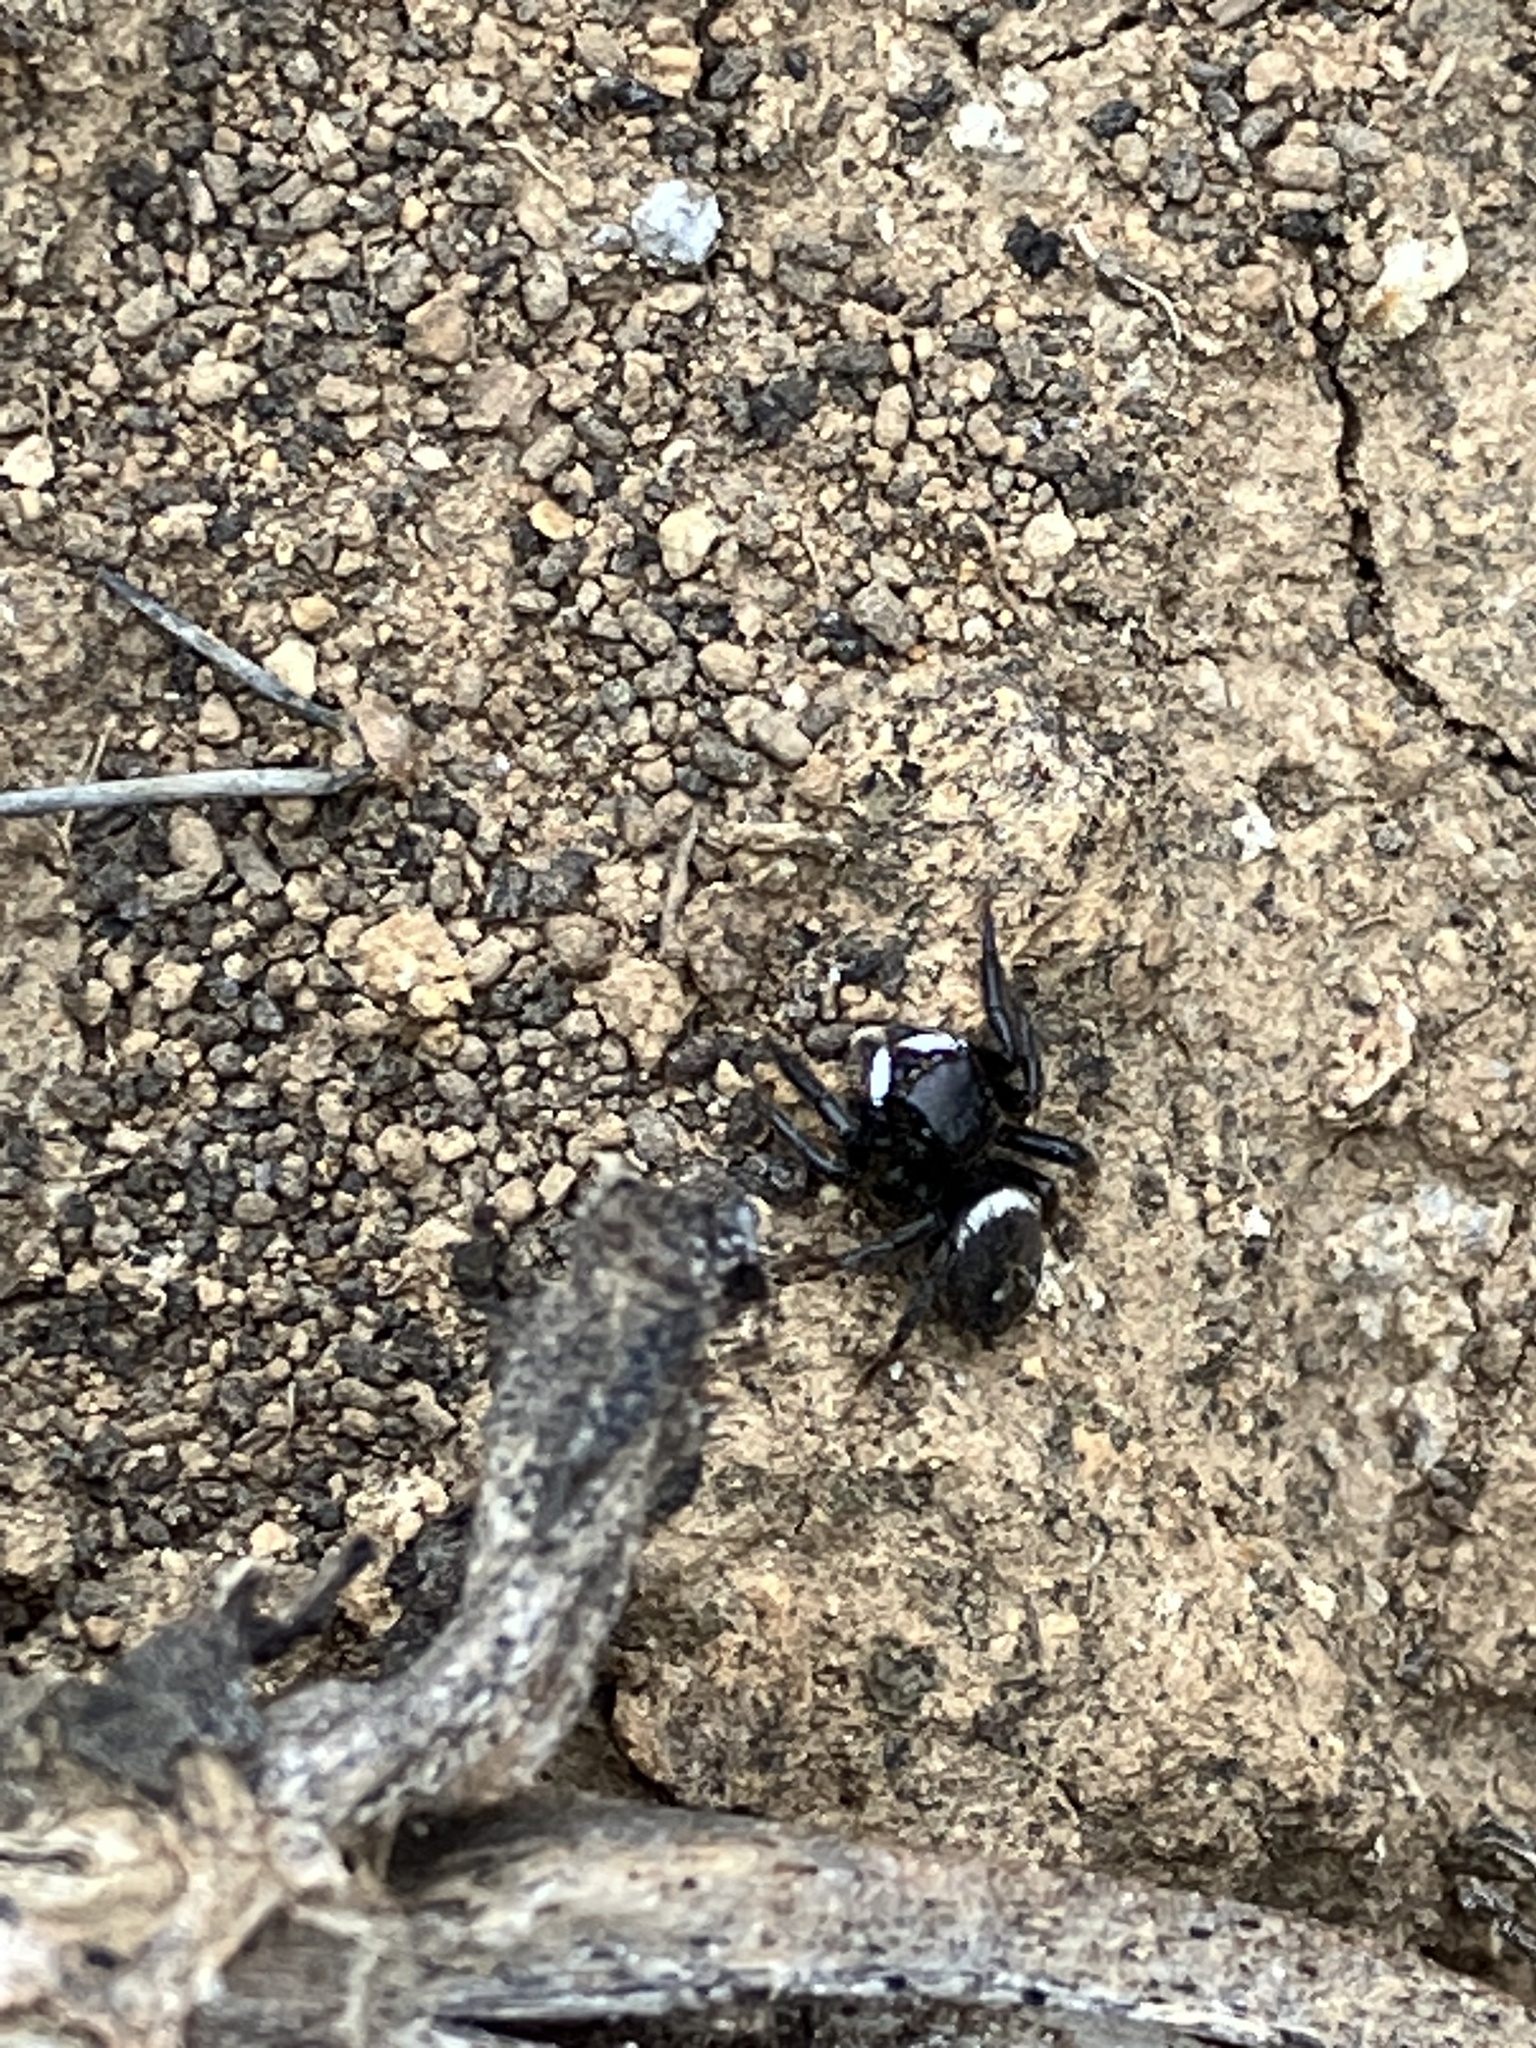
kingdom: Animalia
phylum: Arthropoda
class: Arachnida
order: Araneae
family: Salticidae
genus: Hasarius
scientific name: Hasarius adansoni
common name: Jumping spider
